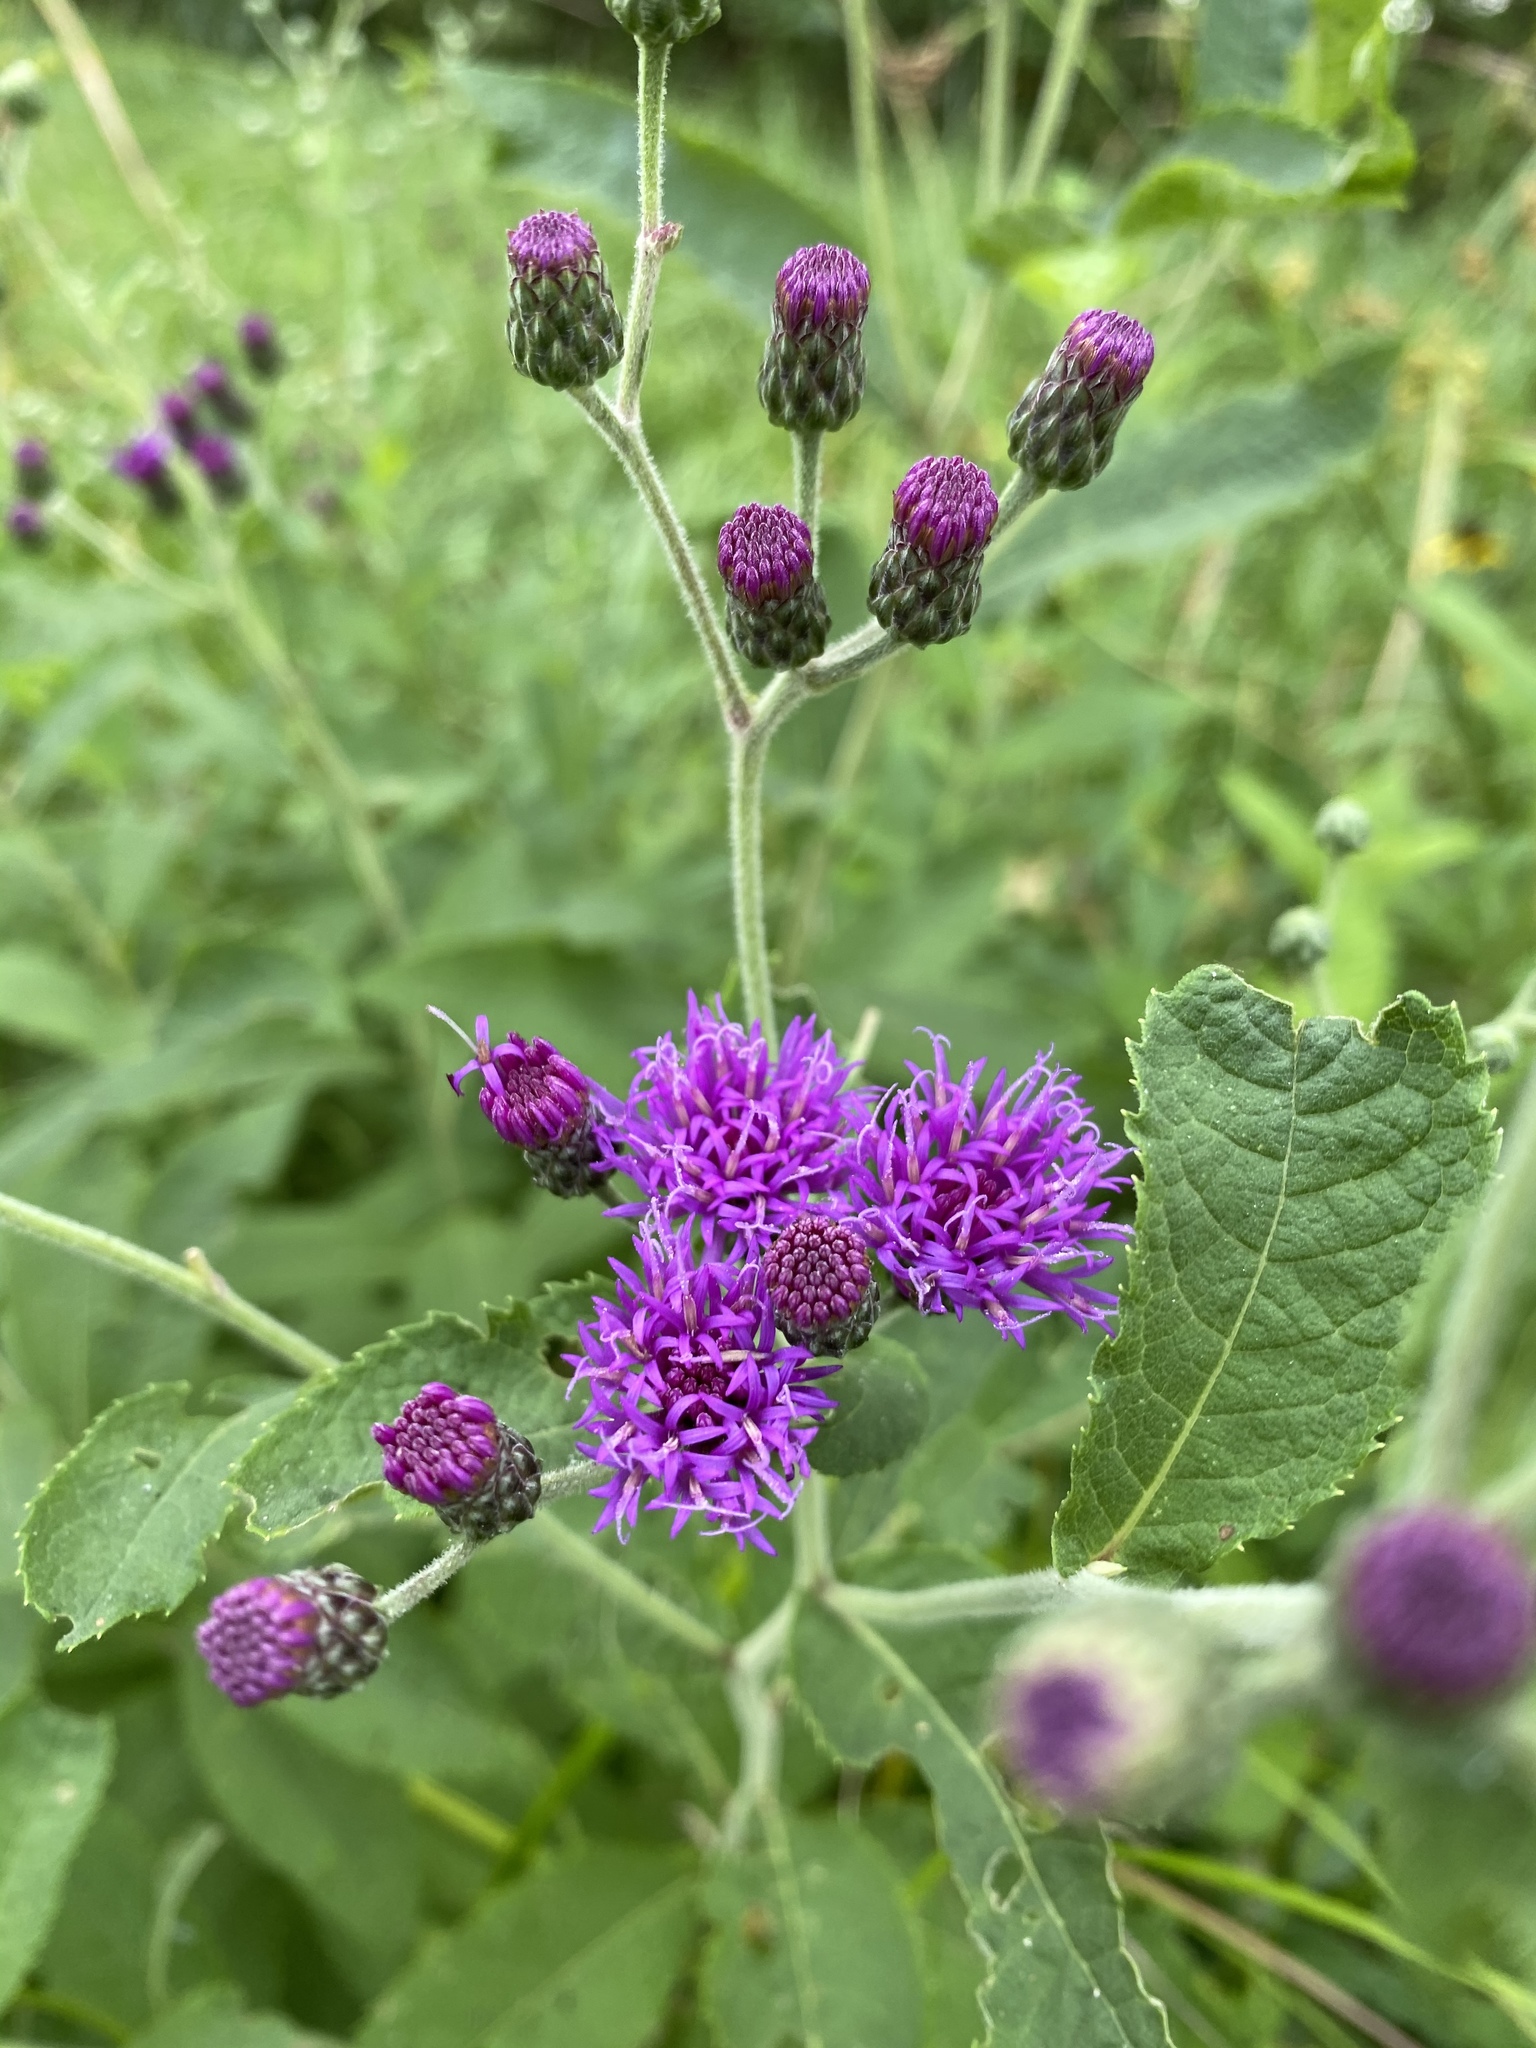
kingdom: Plantae
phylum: Tracheophyta
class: Magnoliopsida
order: Asterales
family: Asteraceae
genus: Vernonia
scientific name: Vernonia missurica
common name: Missouri ironweed
